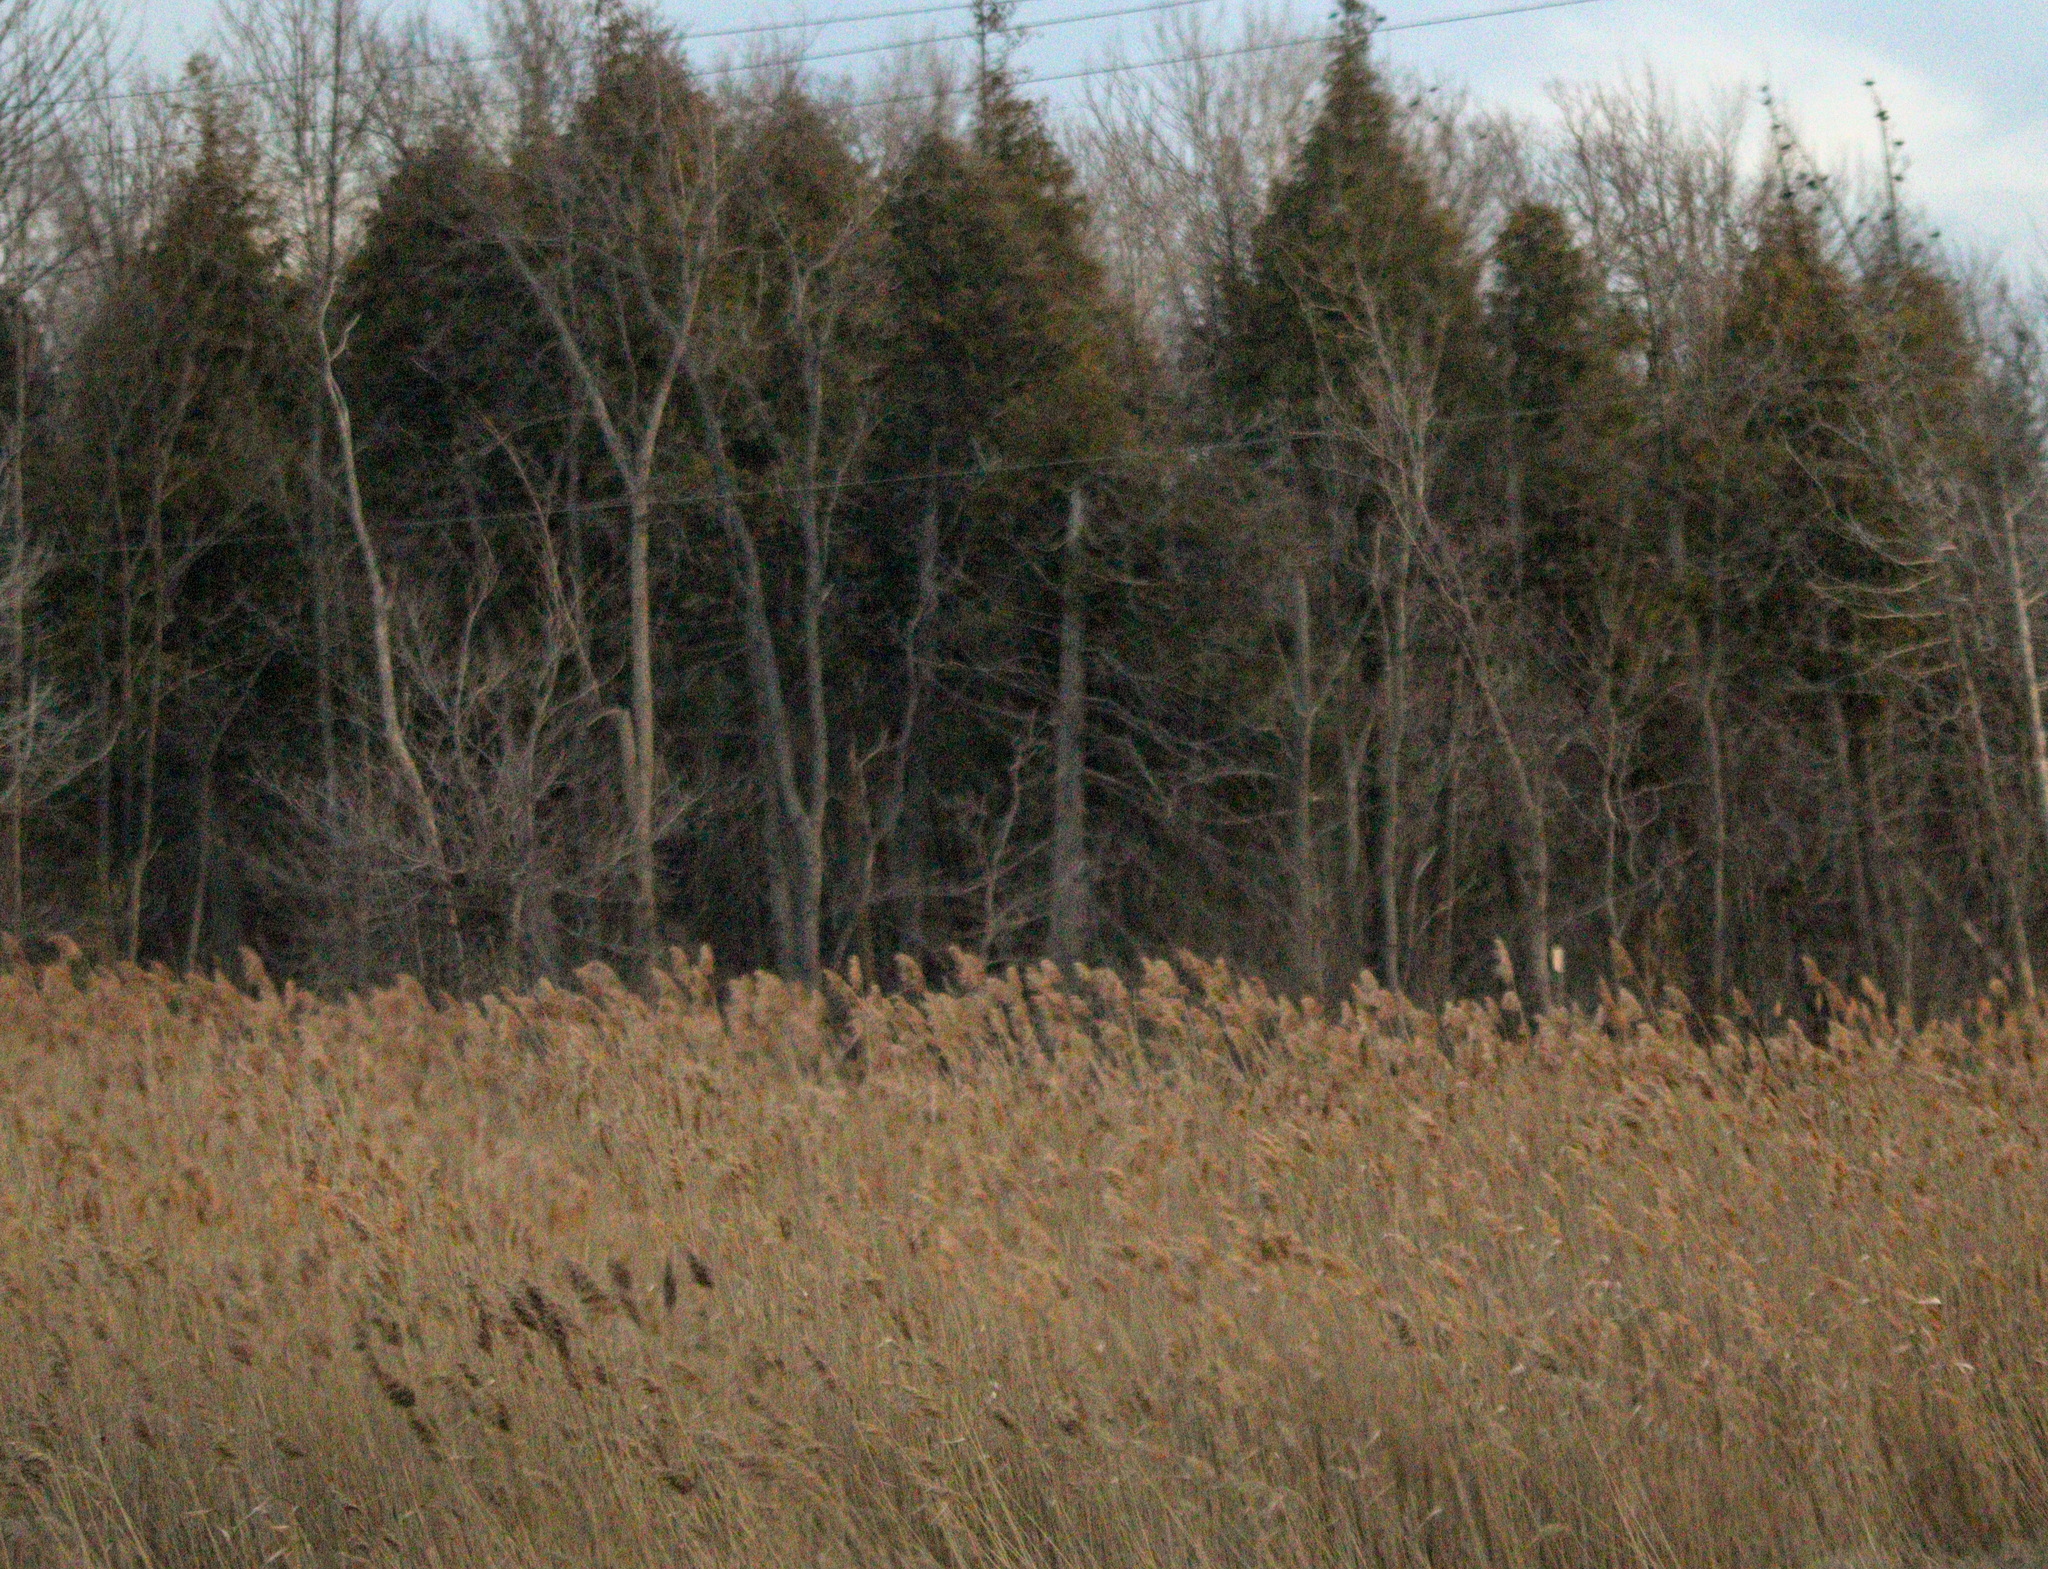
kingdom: Plantae
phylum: Tracheophyta
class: Liliopsida
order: Poales
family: Poaceae
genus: Phragmites
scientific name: Phragmites australis
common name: Common reed
